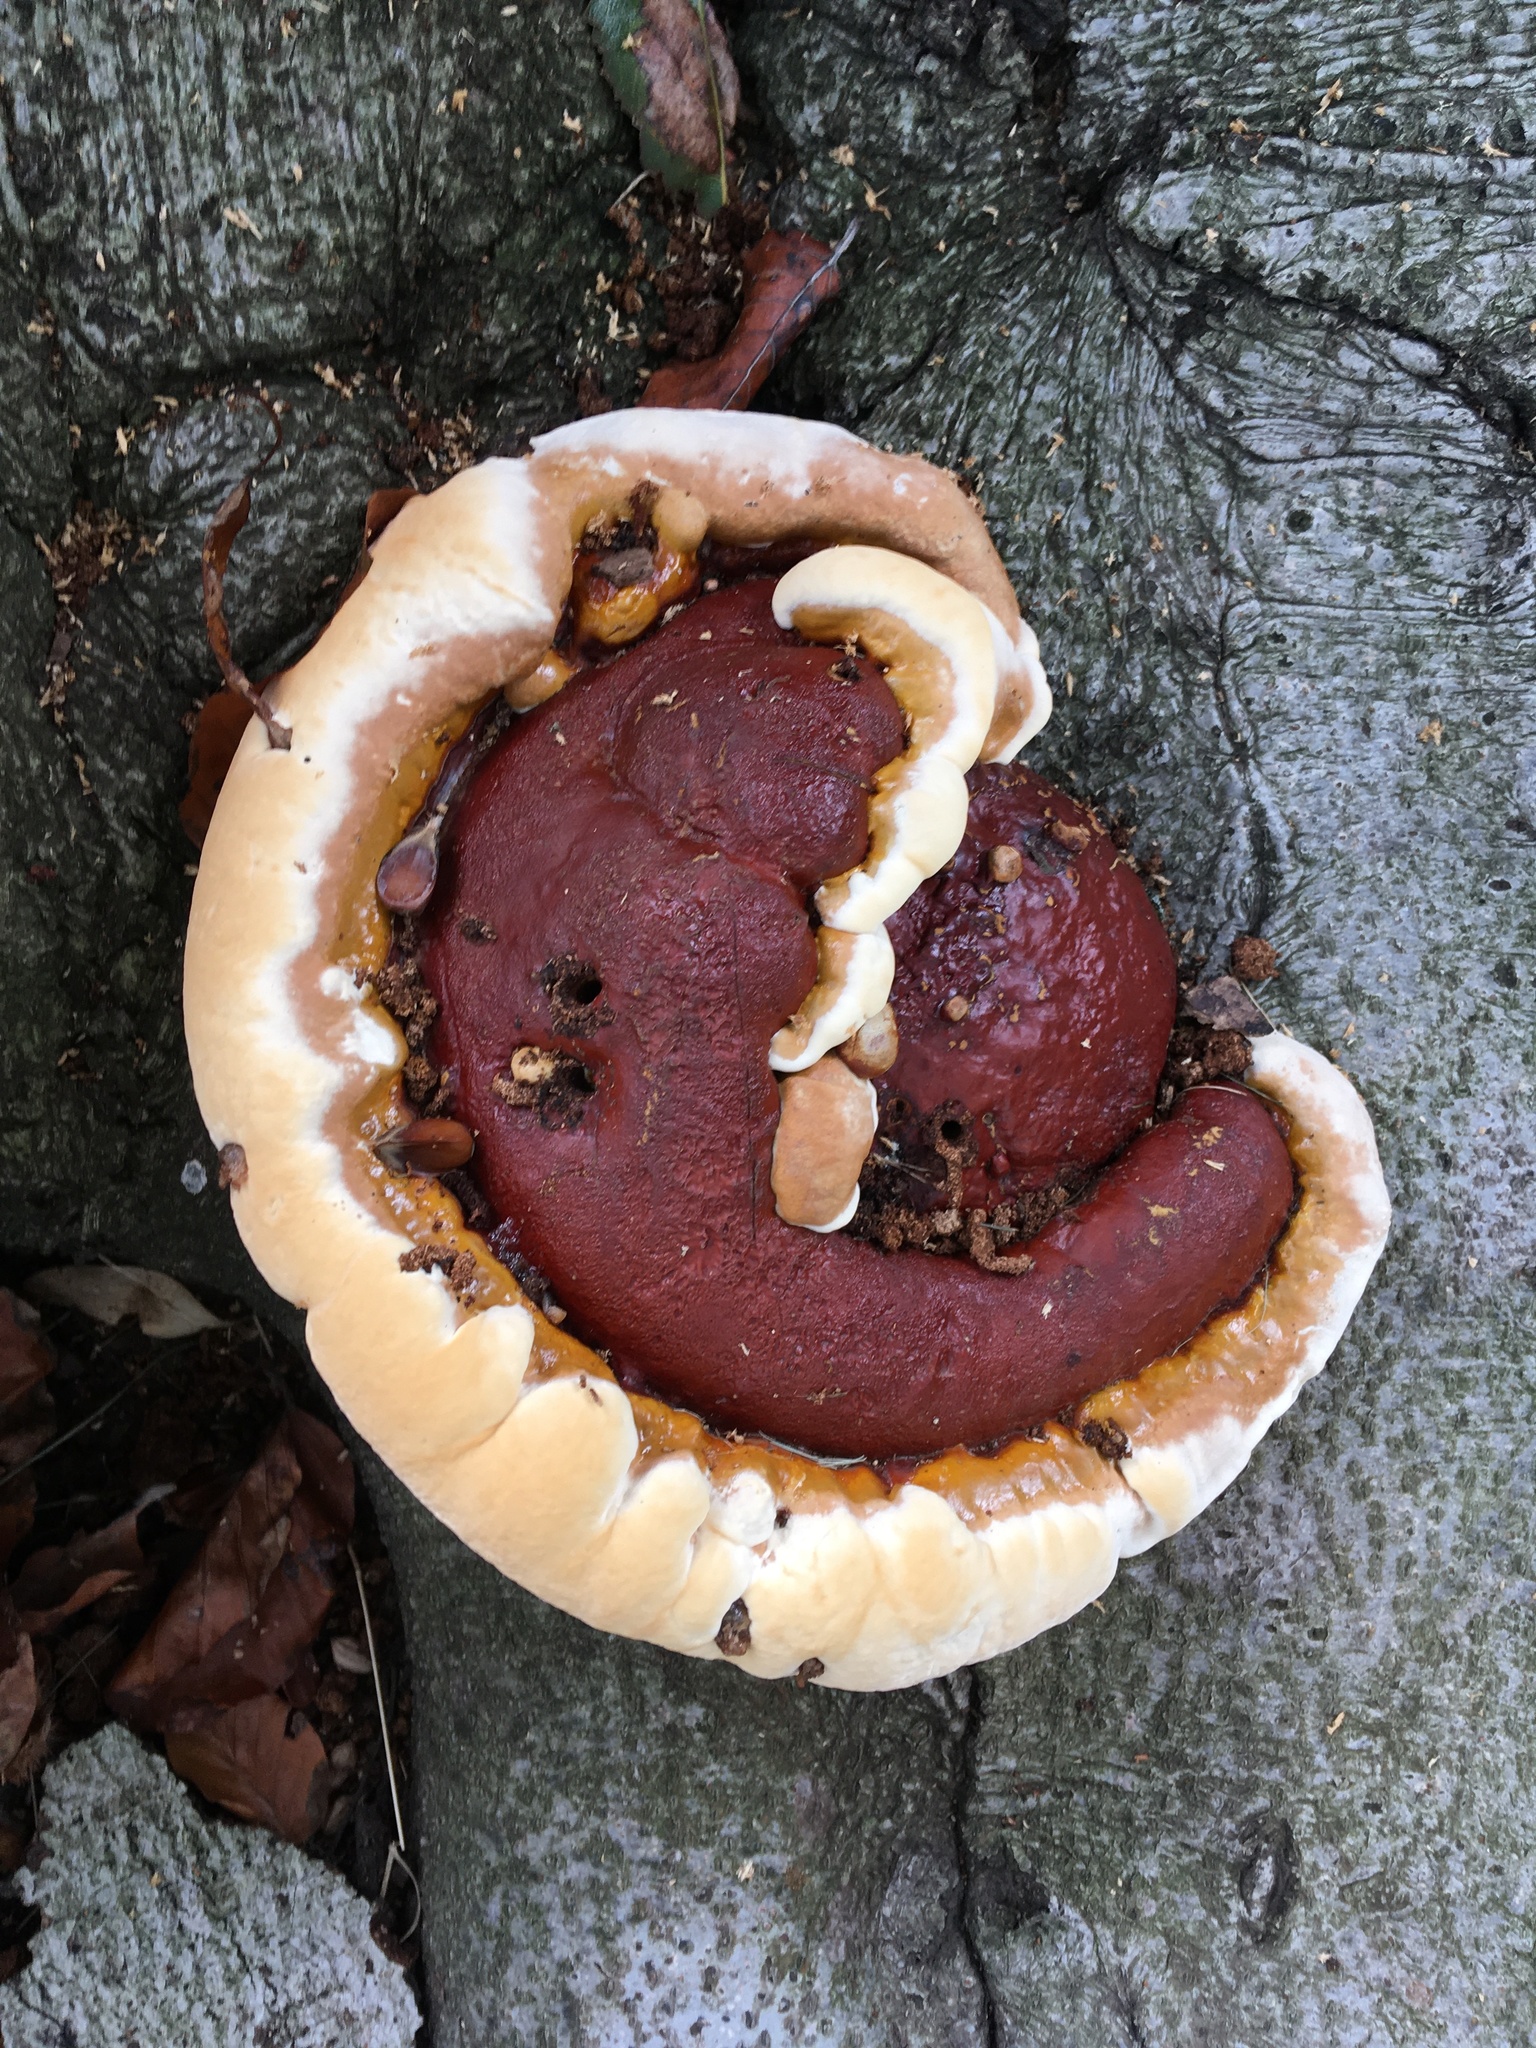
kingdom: Fungi
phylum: Basidiomycota
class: Agaricomycetes
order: Polyporales
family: Polyporaceae
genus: Ganoderma
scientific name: Ganoderma resinaceum
